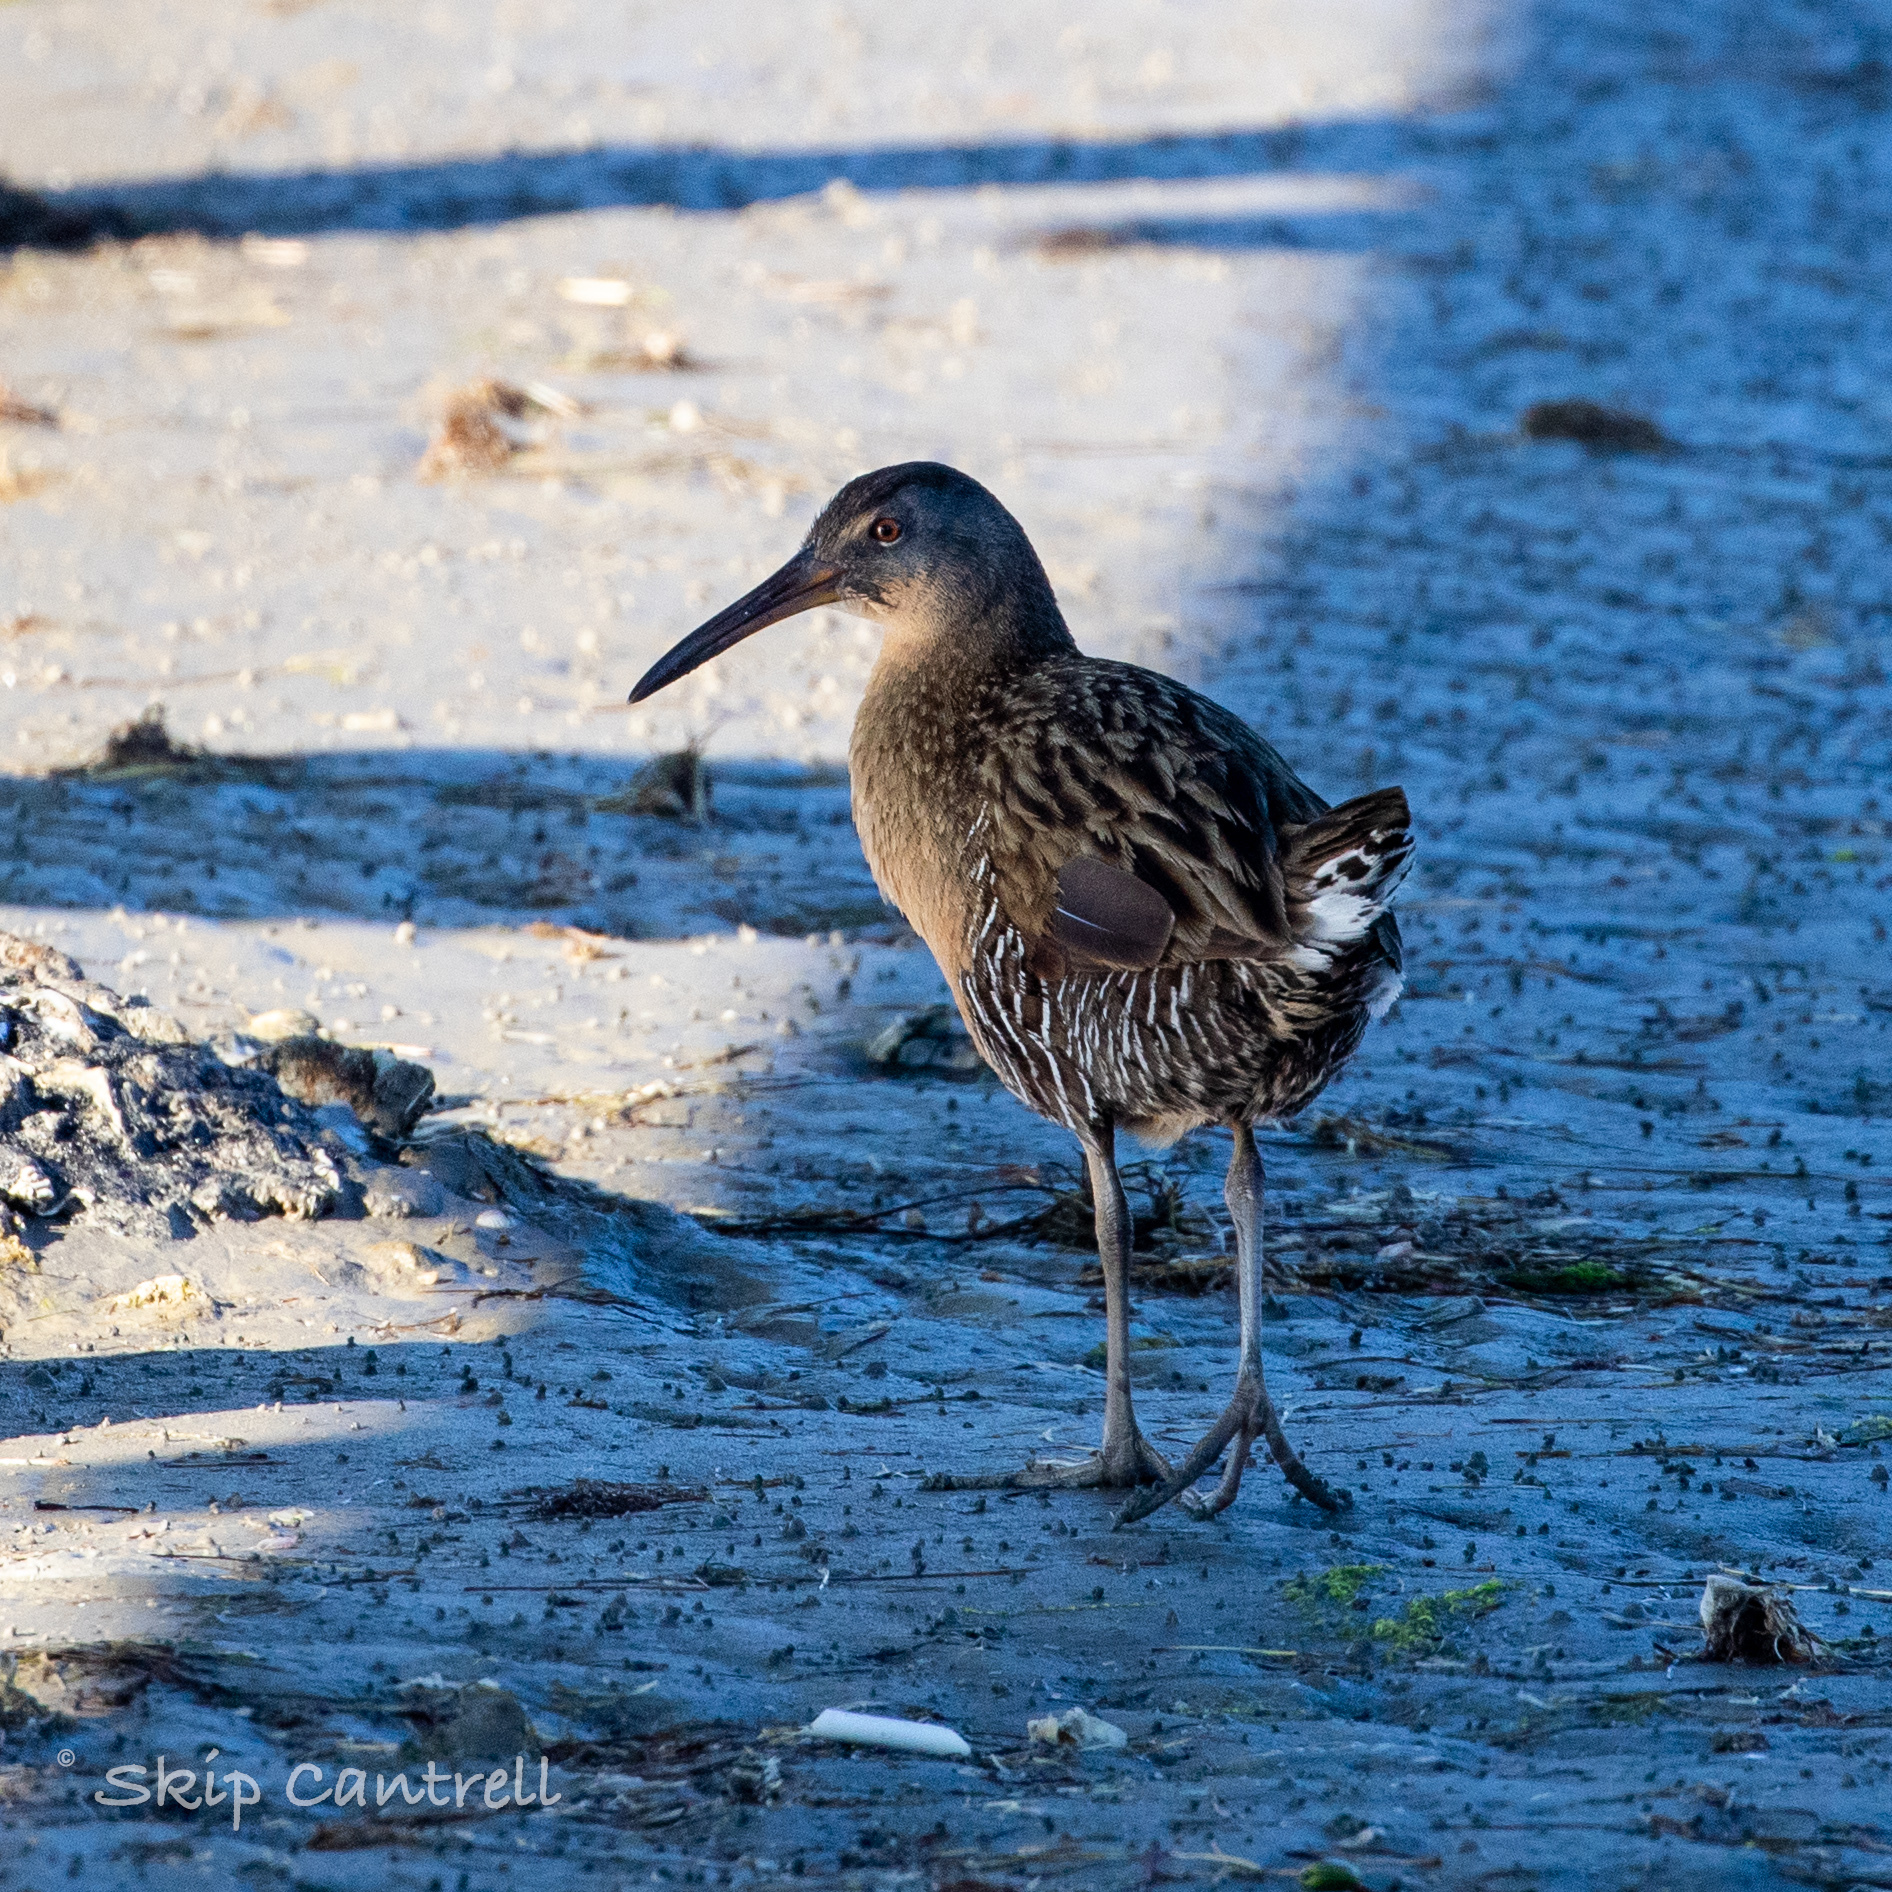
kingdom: Animalia
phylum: Chordata
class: Aves
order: Gruiformes
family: Rallidae
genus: Rallus
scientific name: Rallus crepitans
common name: Clapper rail
